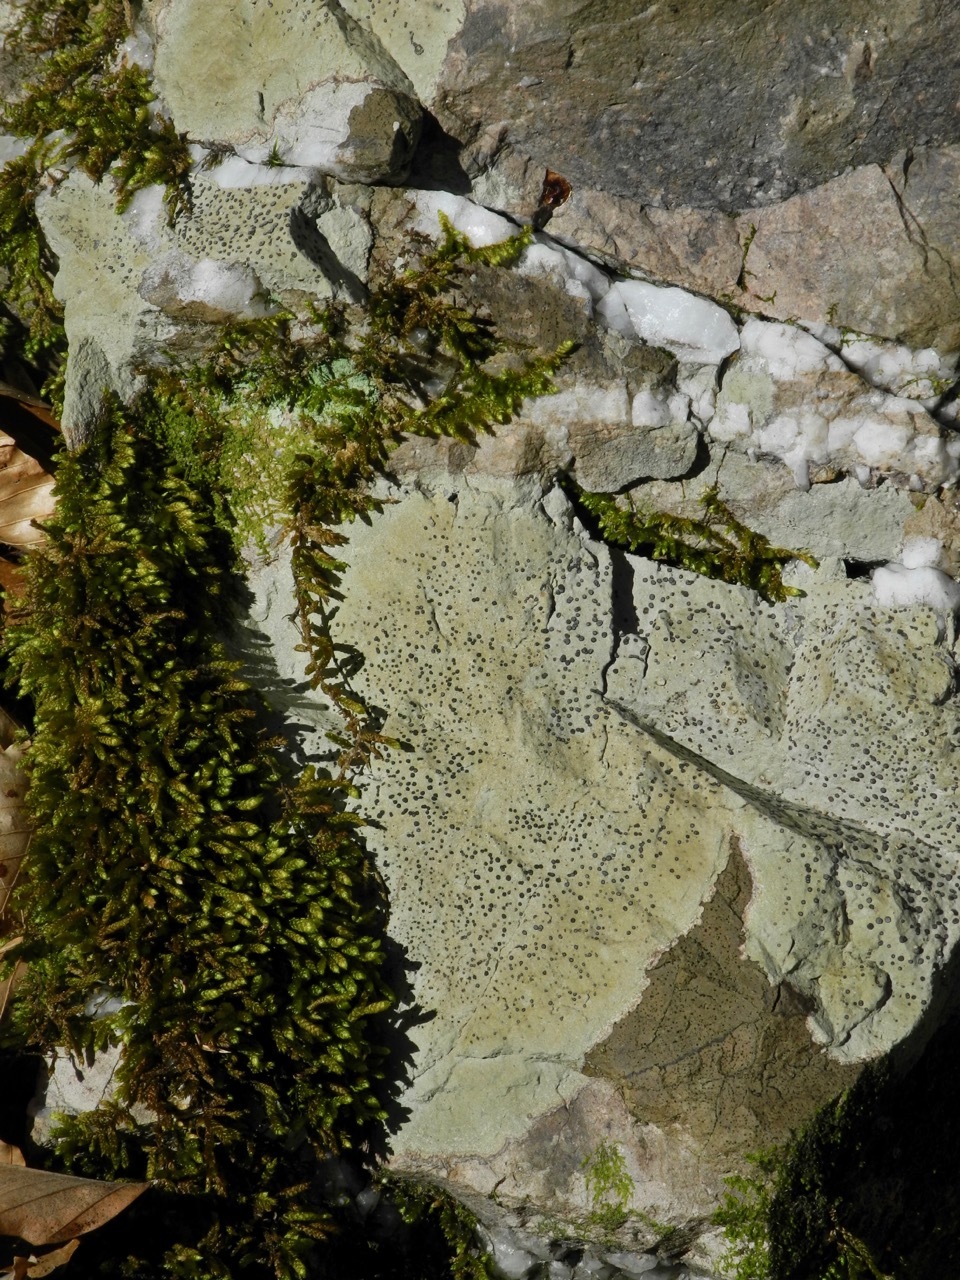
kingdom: Plantae
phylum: Bryophyta
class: Bryopsida
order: Hypnales
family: Brachytheciaceae
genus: Bryoandersonia
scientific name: Bryoandersonia illecebra
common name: Spoon-leaved moss
